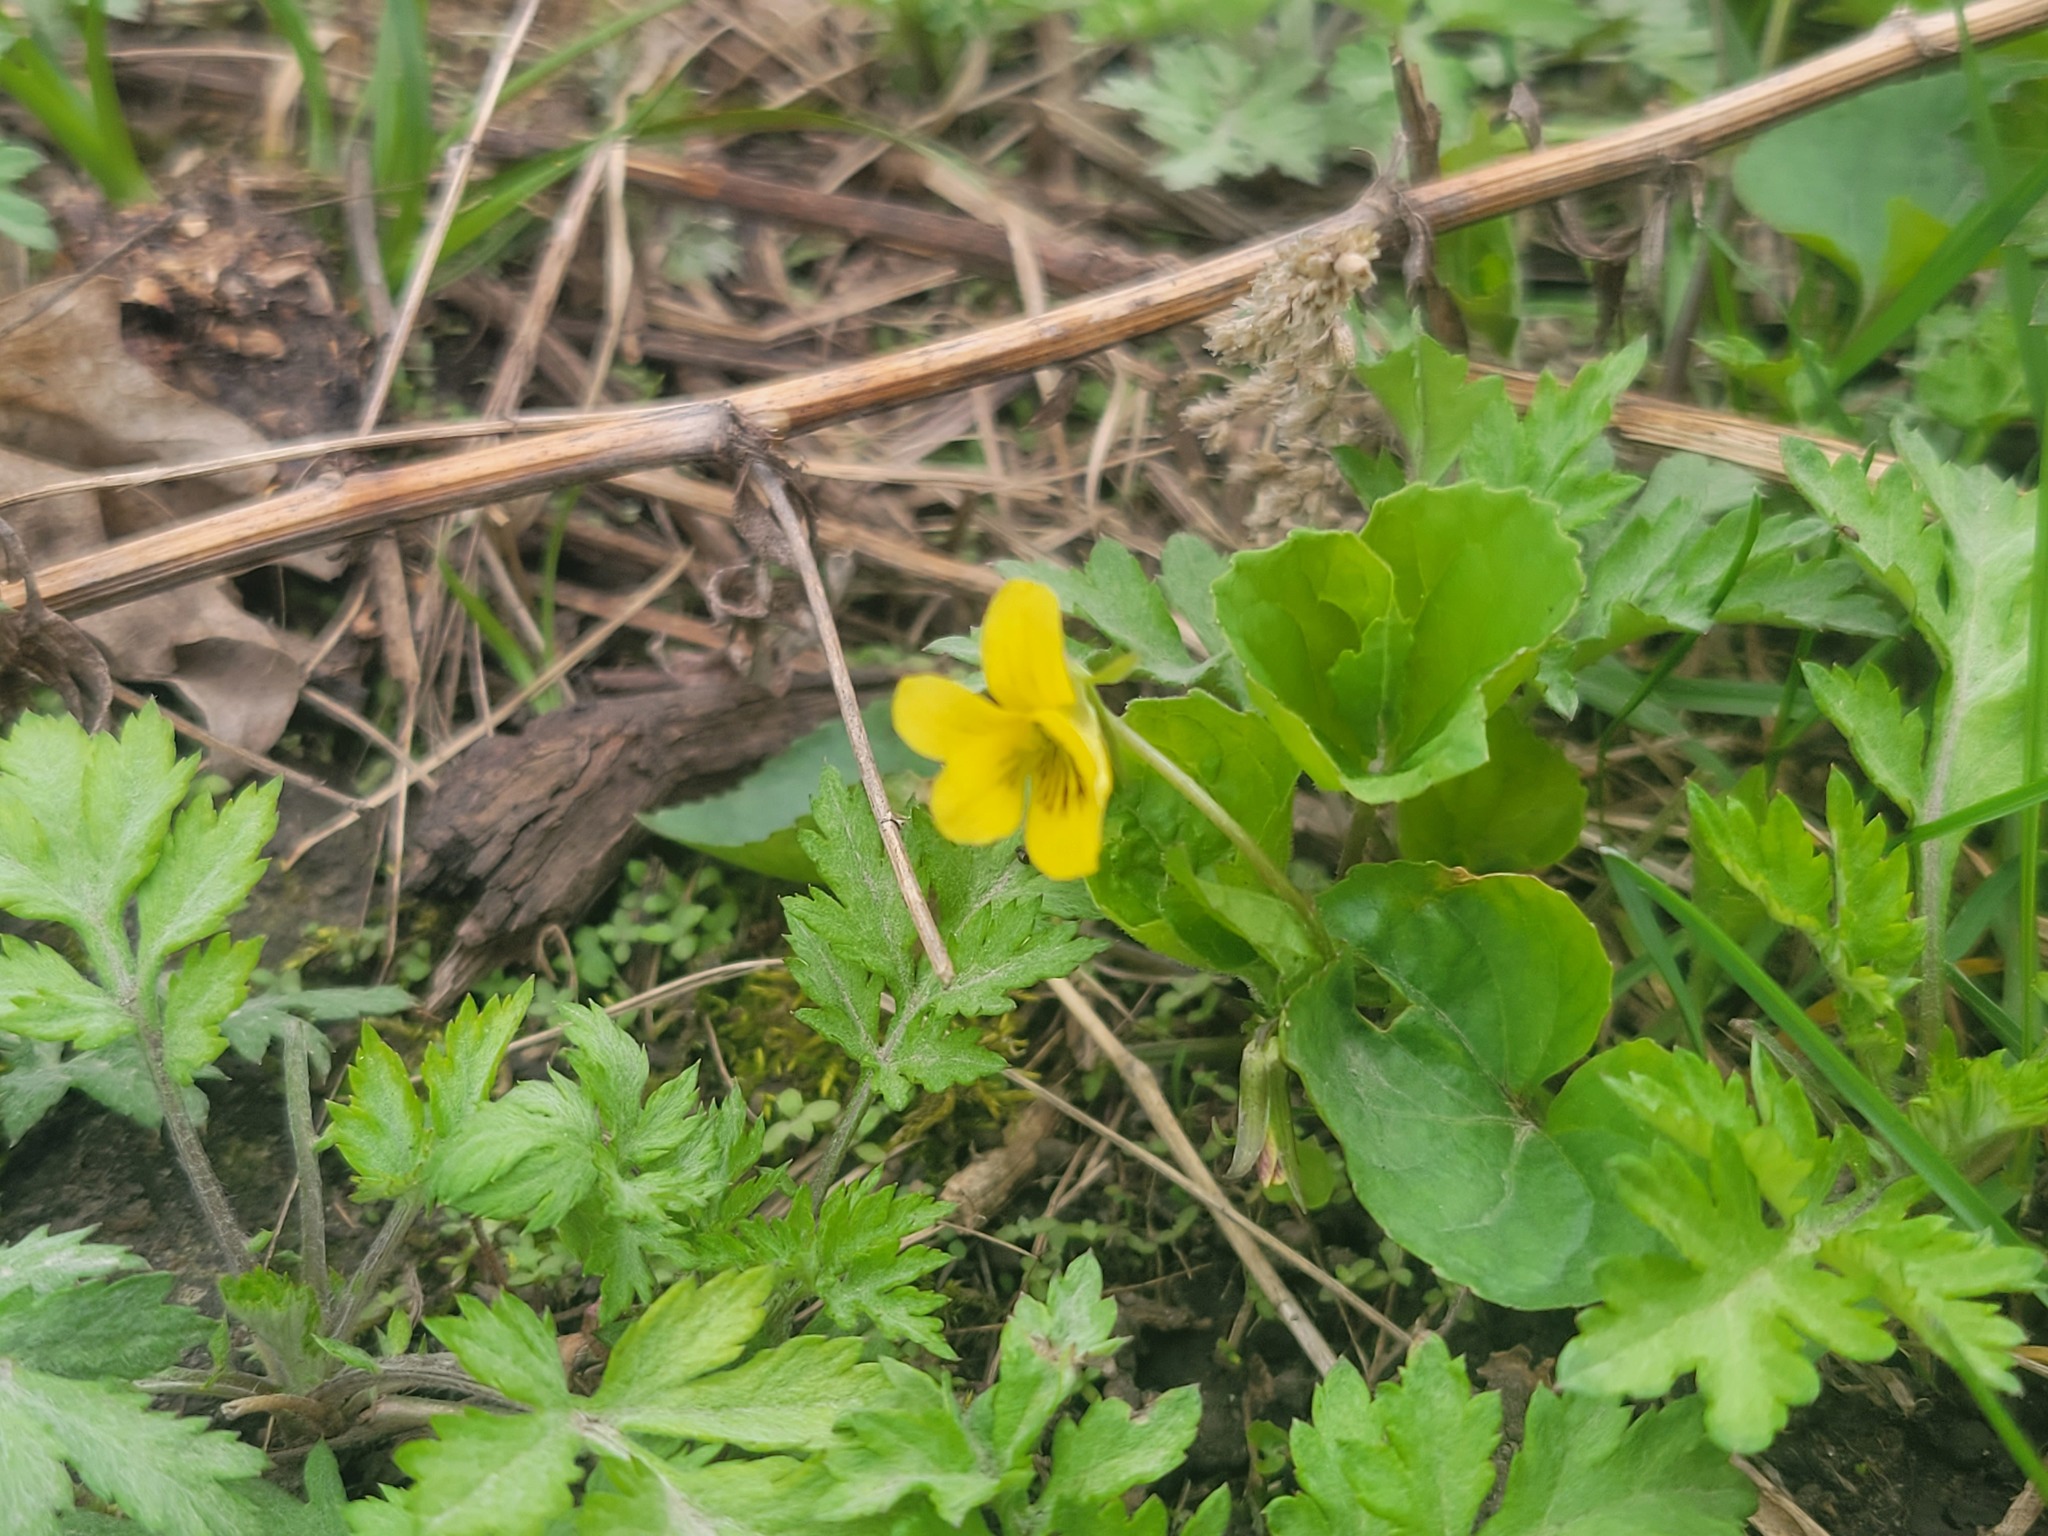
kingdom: Plantae
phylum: Tracheophyta
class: Magnoliopsida
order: Malpighiales
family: Violaceae
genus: Viola
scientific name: Viola eriocarpa
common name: Smooth yellow violet
